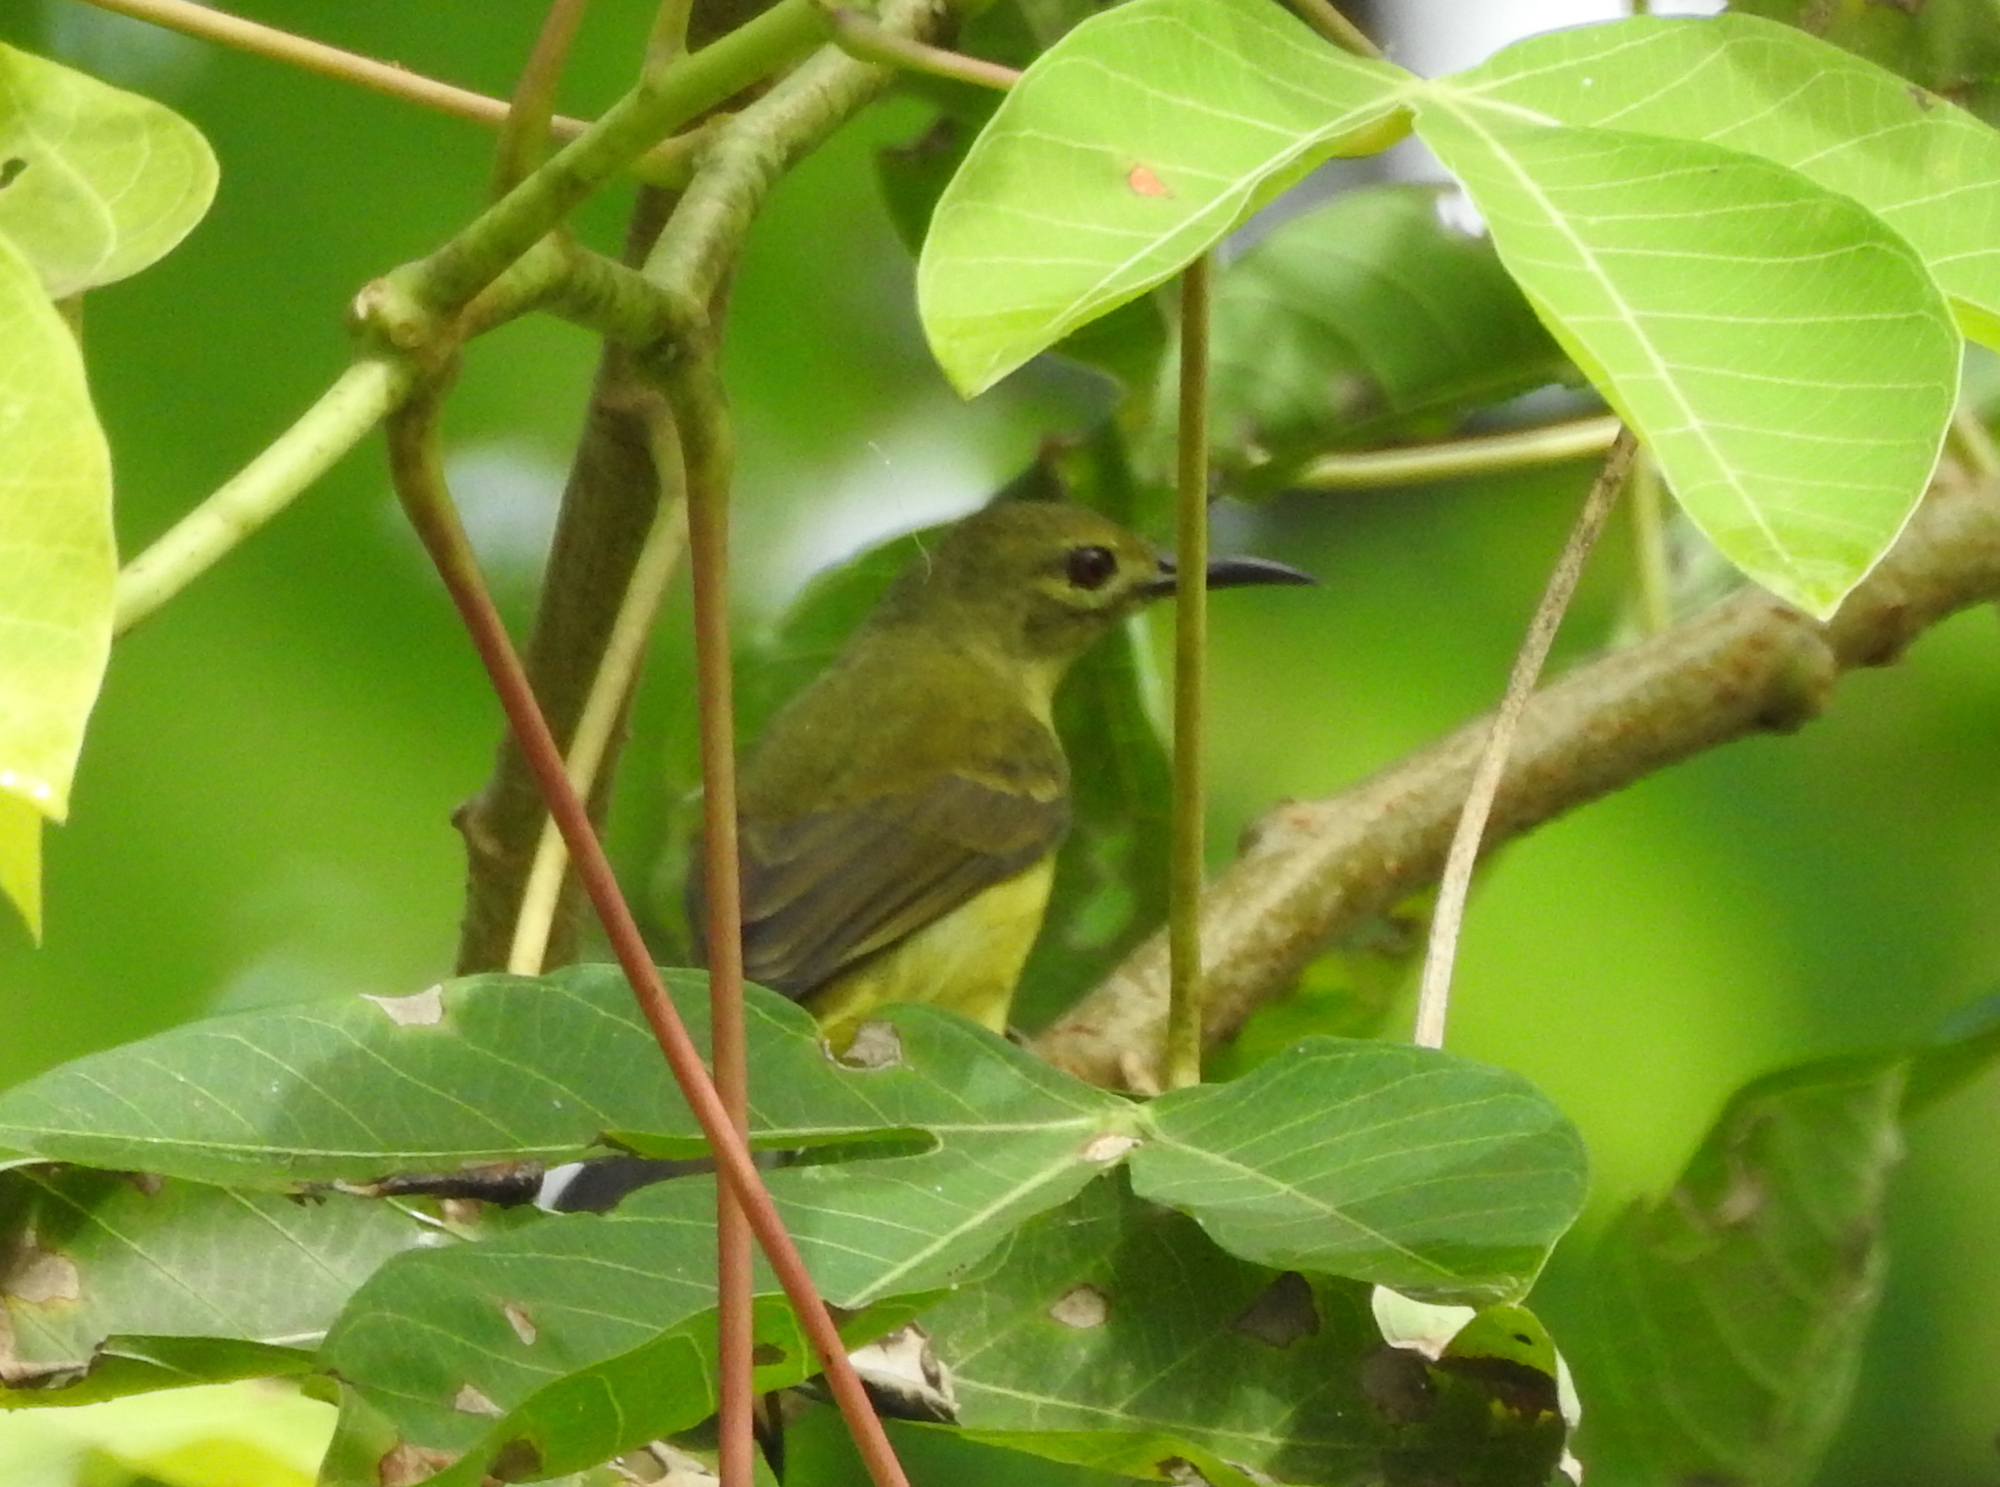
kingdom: Animalia
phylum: Chordata
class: Aves
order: Passeriformes
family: Nectariniidae
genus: Anthreptes
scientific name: Anthreptes malacensis
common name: Brown-throated sunbird
